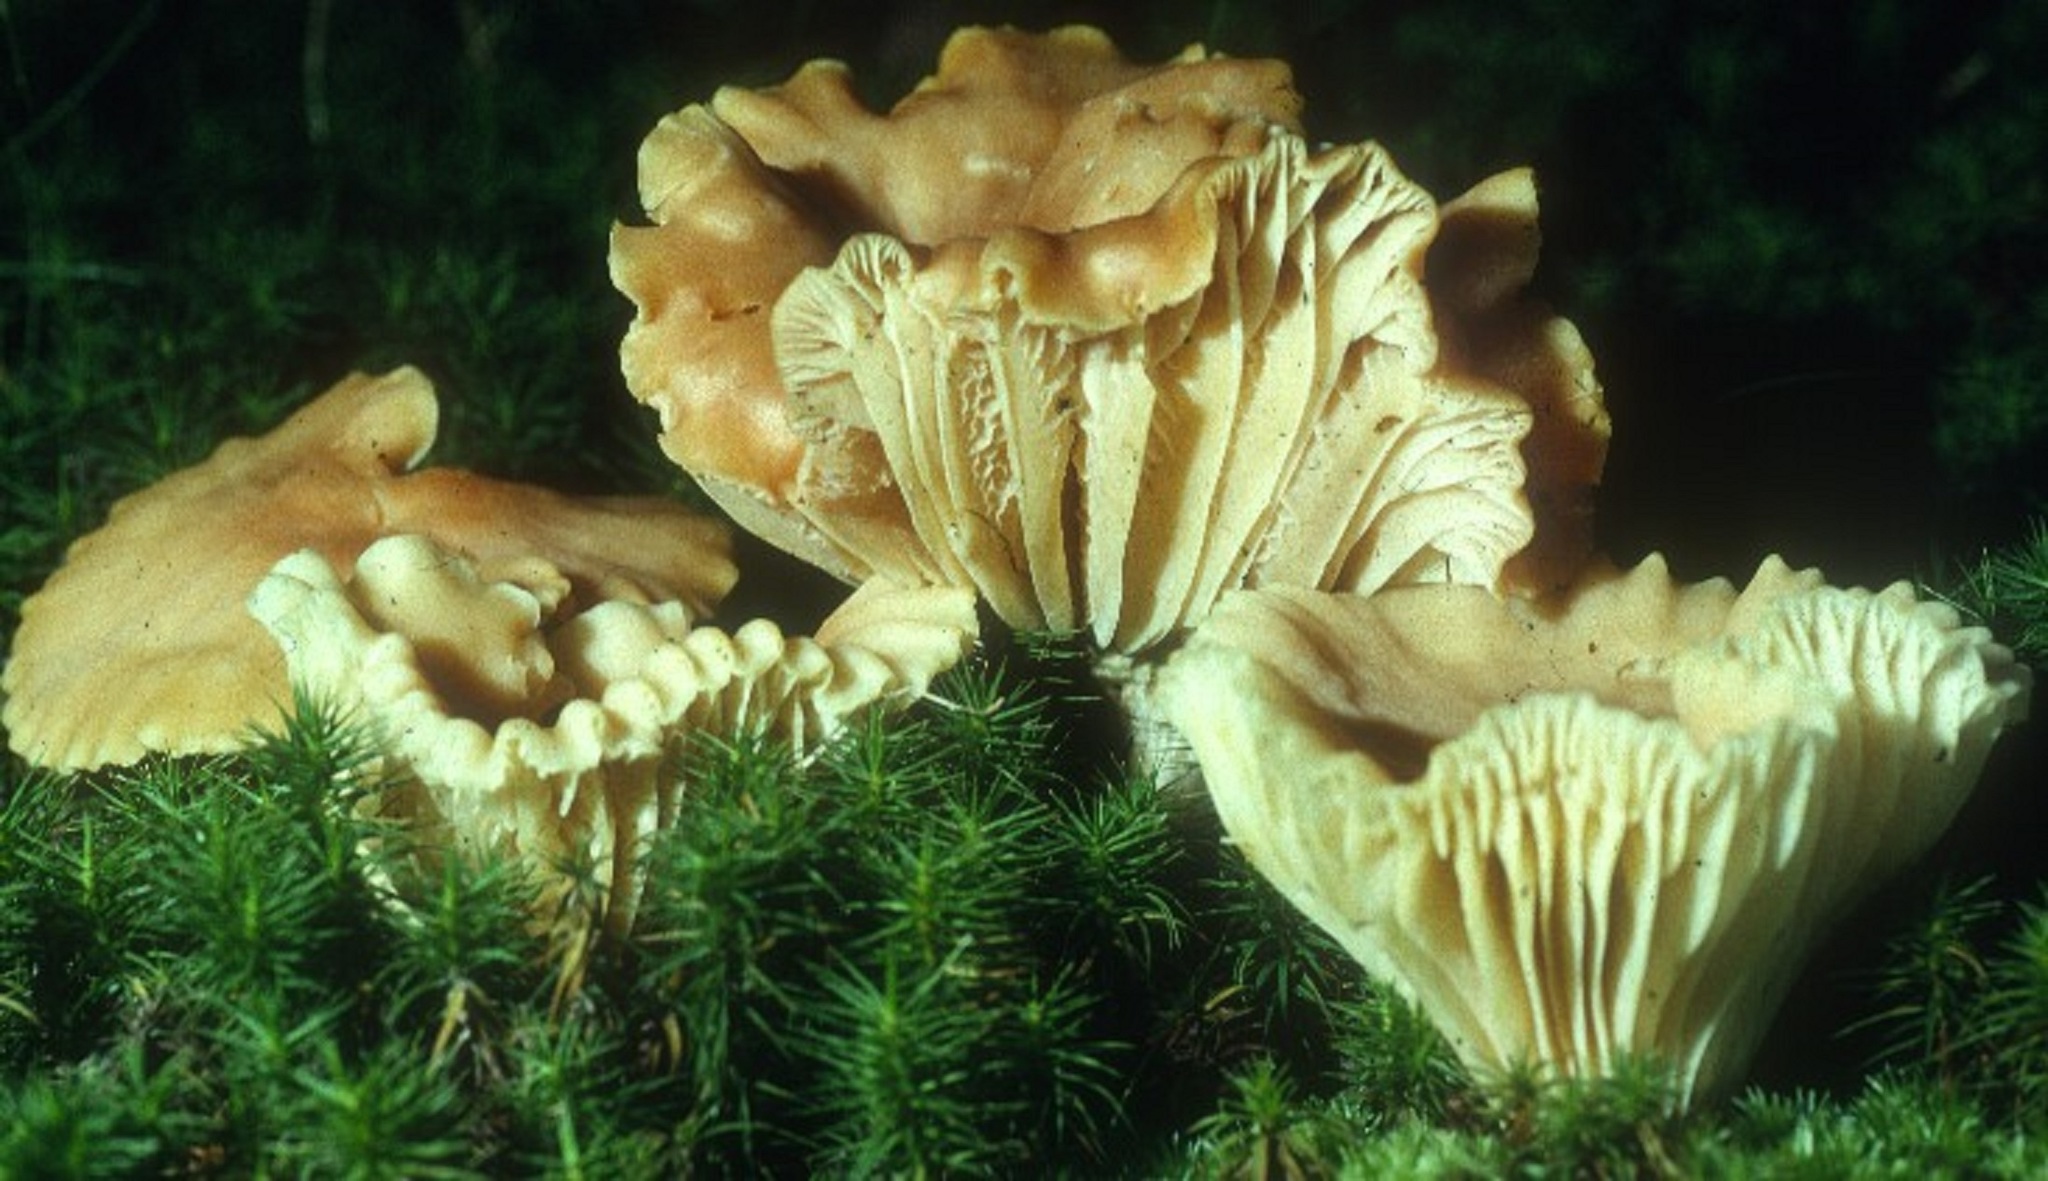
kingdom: Fungi
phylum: Basidiomycota
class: Agaricomycetes
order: Agaricales
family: Hygrophoraceae
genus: Cuphophyllus
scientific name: Cuphophyllus pratensis
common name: Meadow waxcap
